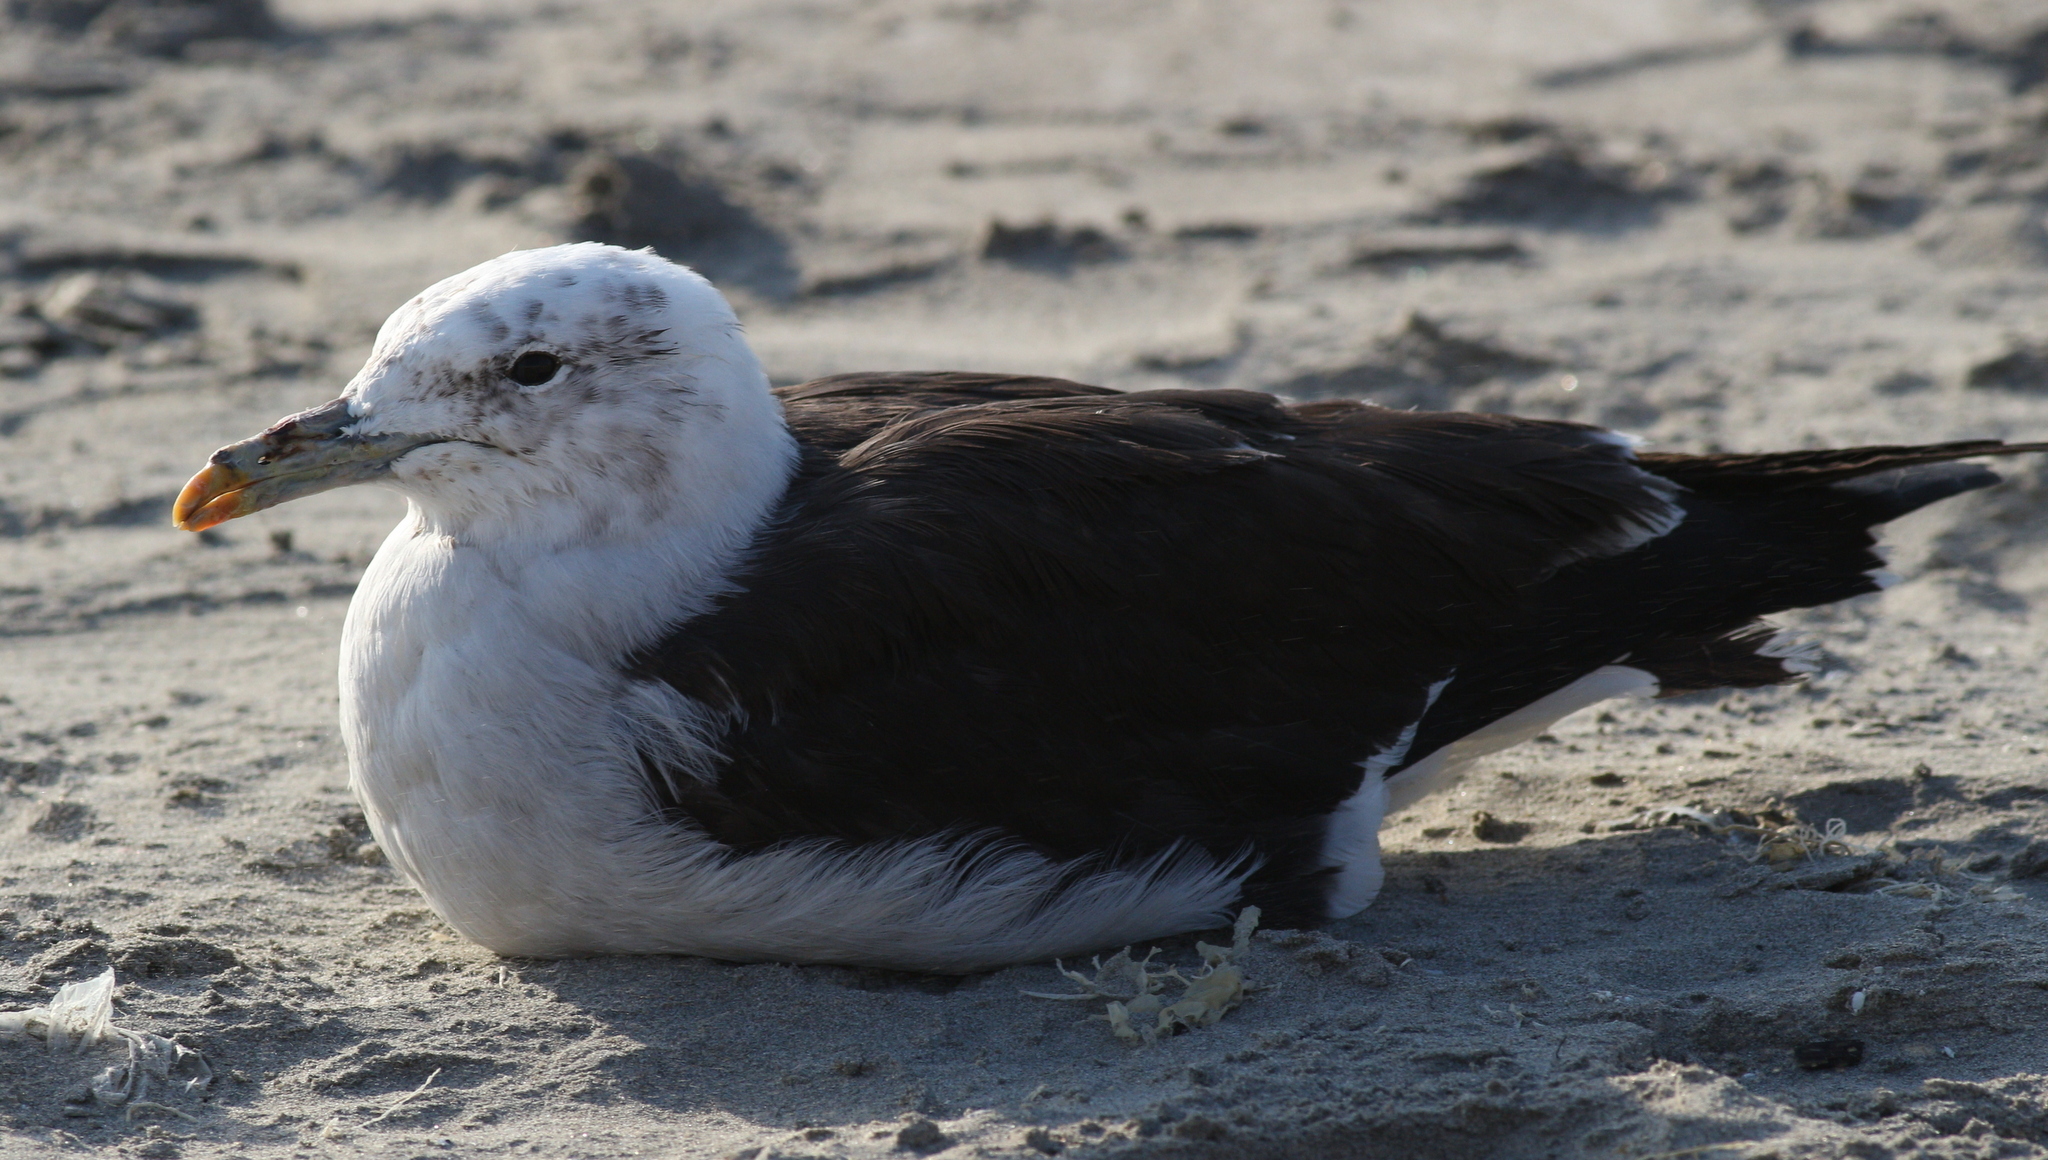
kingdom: Animalia
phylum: Chordata
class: Aves
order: Charadriiformes
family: Laridae
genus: Larus
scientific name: Larus dominicanus
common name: Kelp gull
